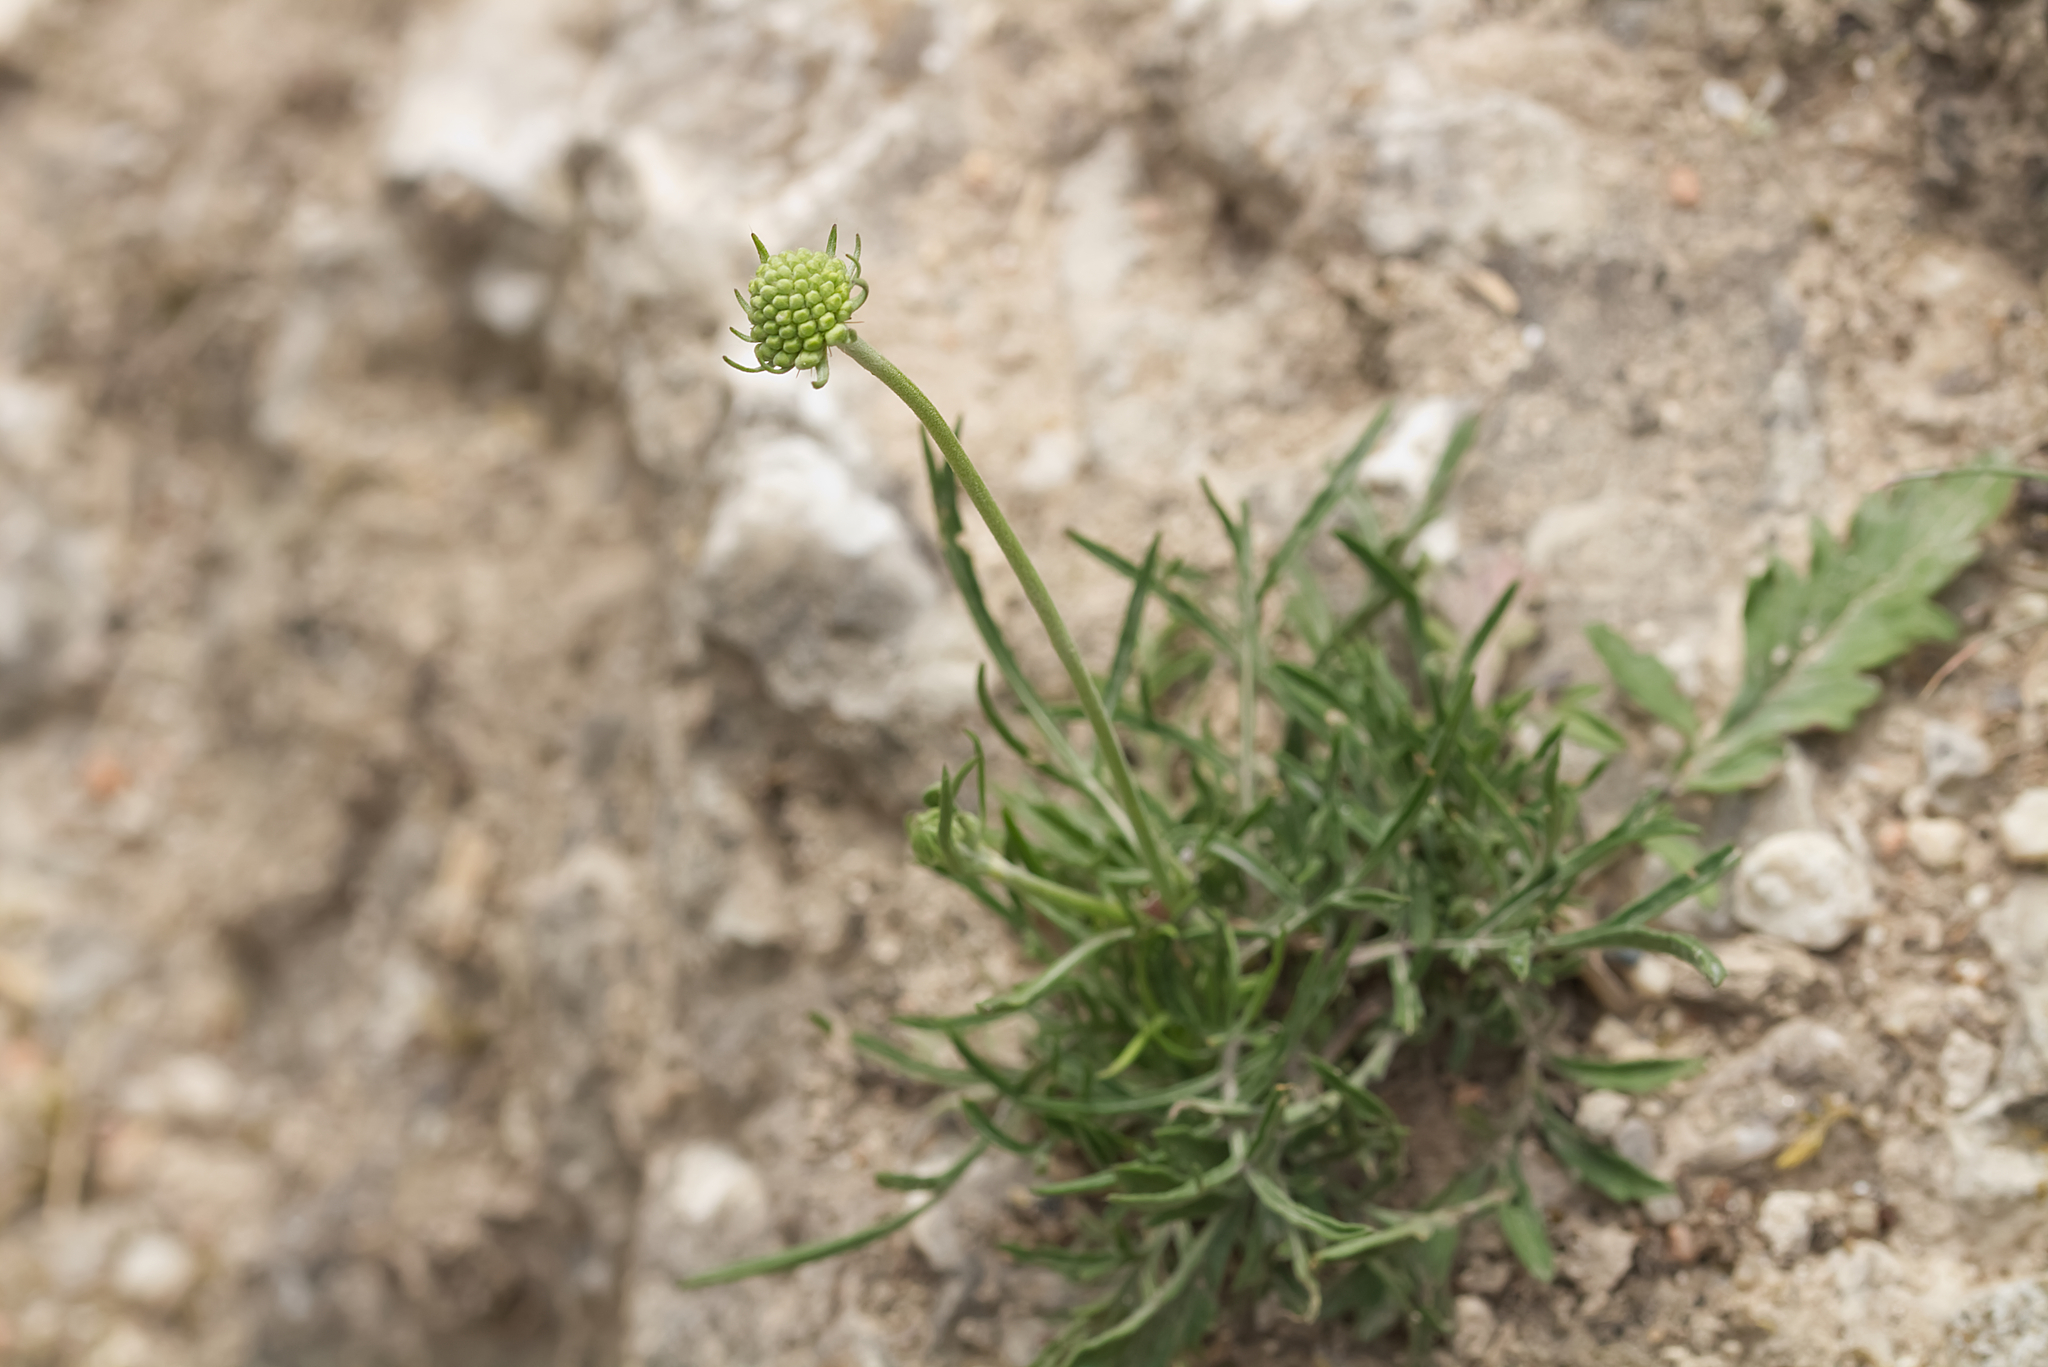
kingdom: Plantae
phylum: Tracheophyta
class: Magnoliopsida
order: Dipsacales
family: Caprifoliaceae
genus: Scabiosa
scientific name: Scabiosa ochroleuca
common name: Cream pincushions
